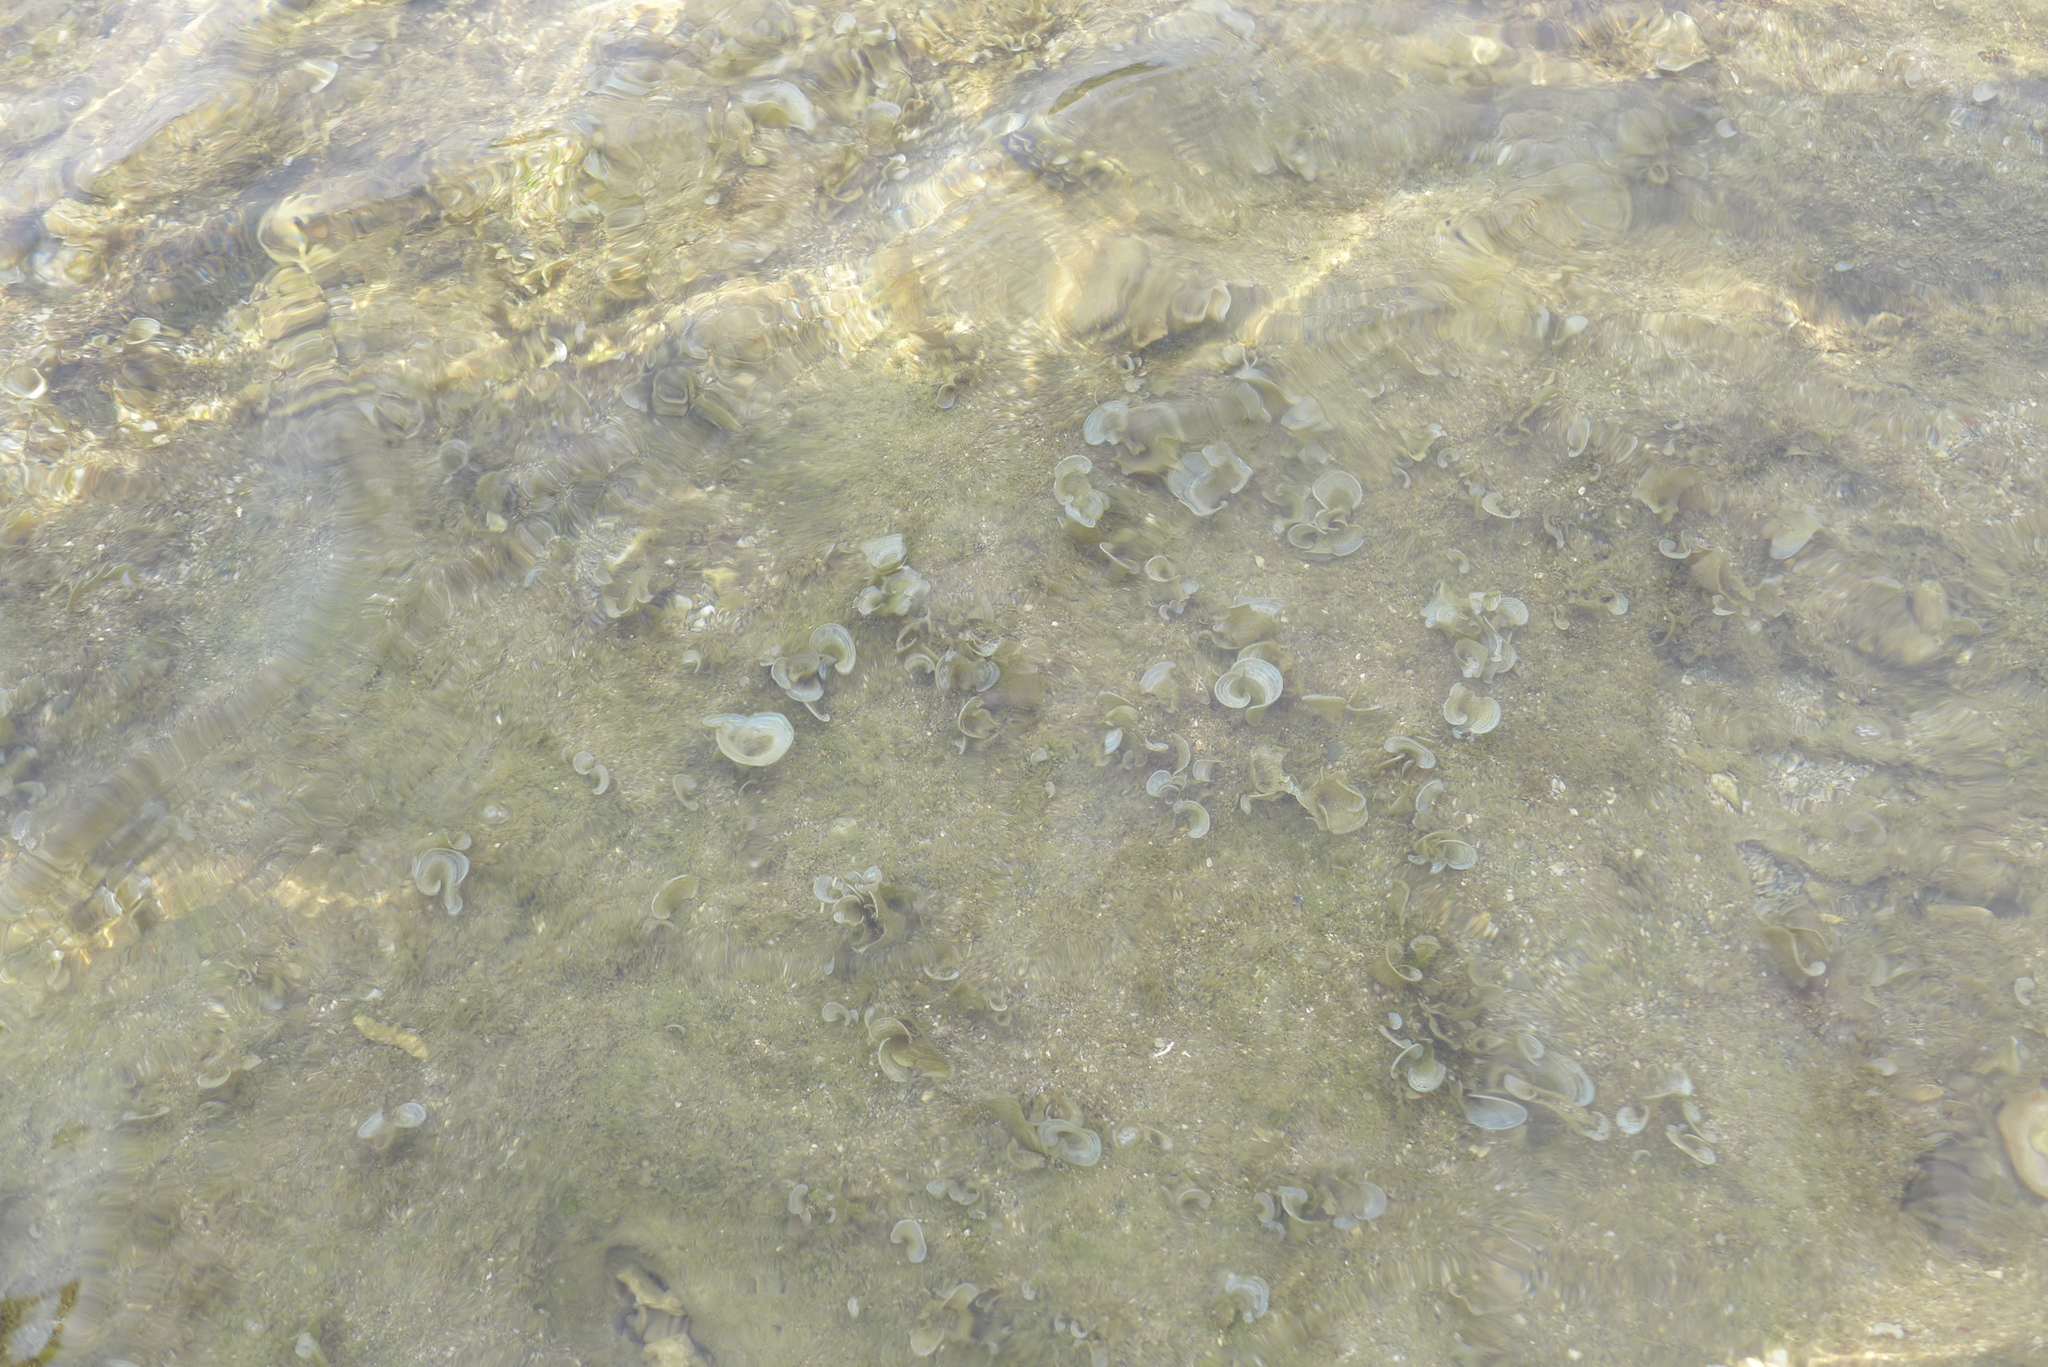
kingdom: Chromista
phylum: Ochrophyta
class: Phaeophyceae
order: Dictyotales
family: Dictyotaceae
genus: Padina
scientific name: Padina sanctae-crucis
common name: White scroll algae
